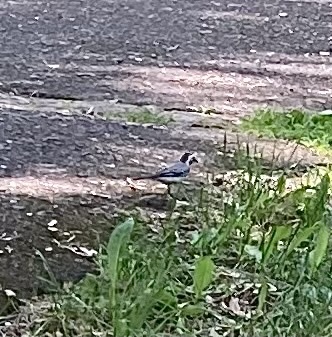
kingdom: Animalia
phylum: Chordata
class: Aves
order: Passeriformes
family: Motacillidae
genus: Motacilla
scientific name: Motacilla alba
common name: White wagtail
